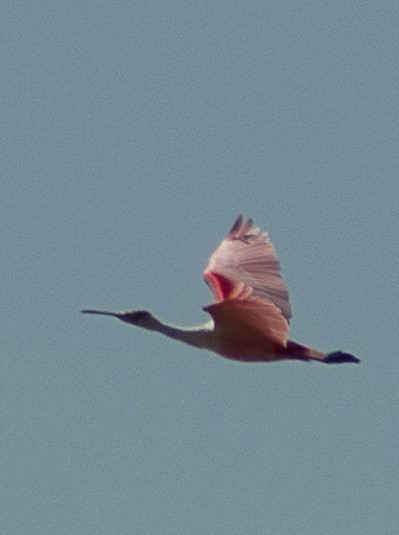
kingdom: Animalia
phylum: Chordata
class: Aves
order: Pelecaniformes
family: Threskiornithidae
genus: Platalea
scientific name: Platalea ajaja
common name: Roseate spoonbill
